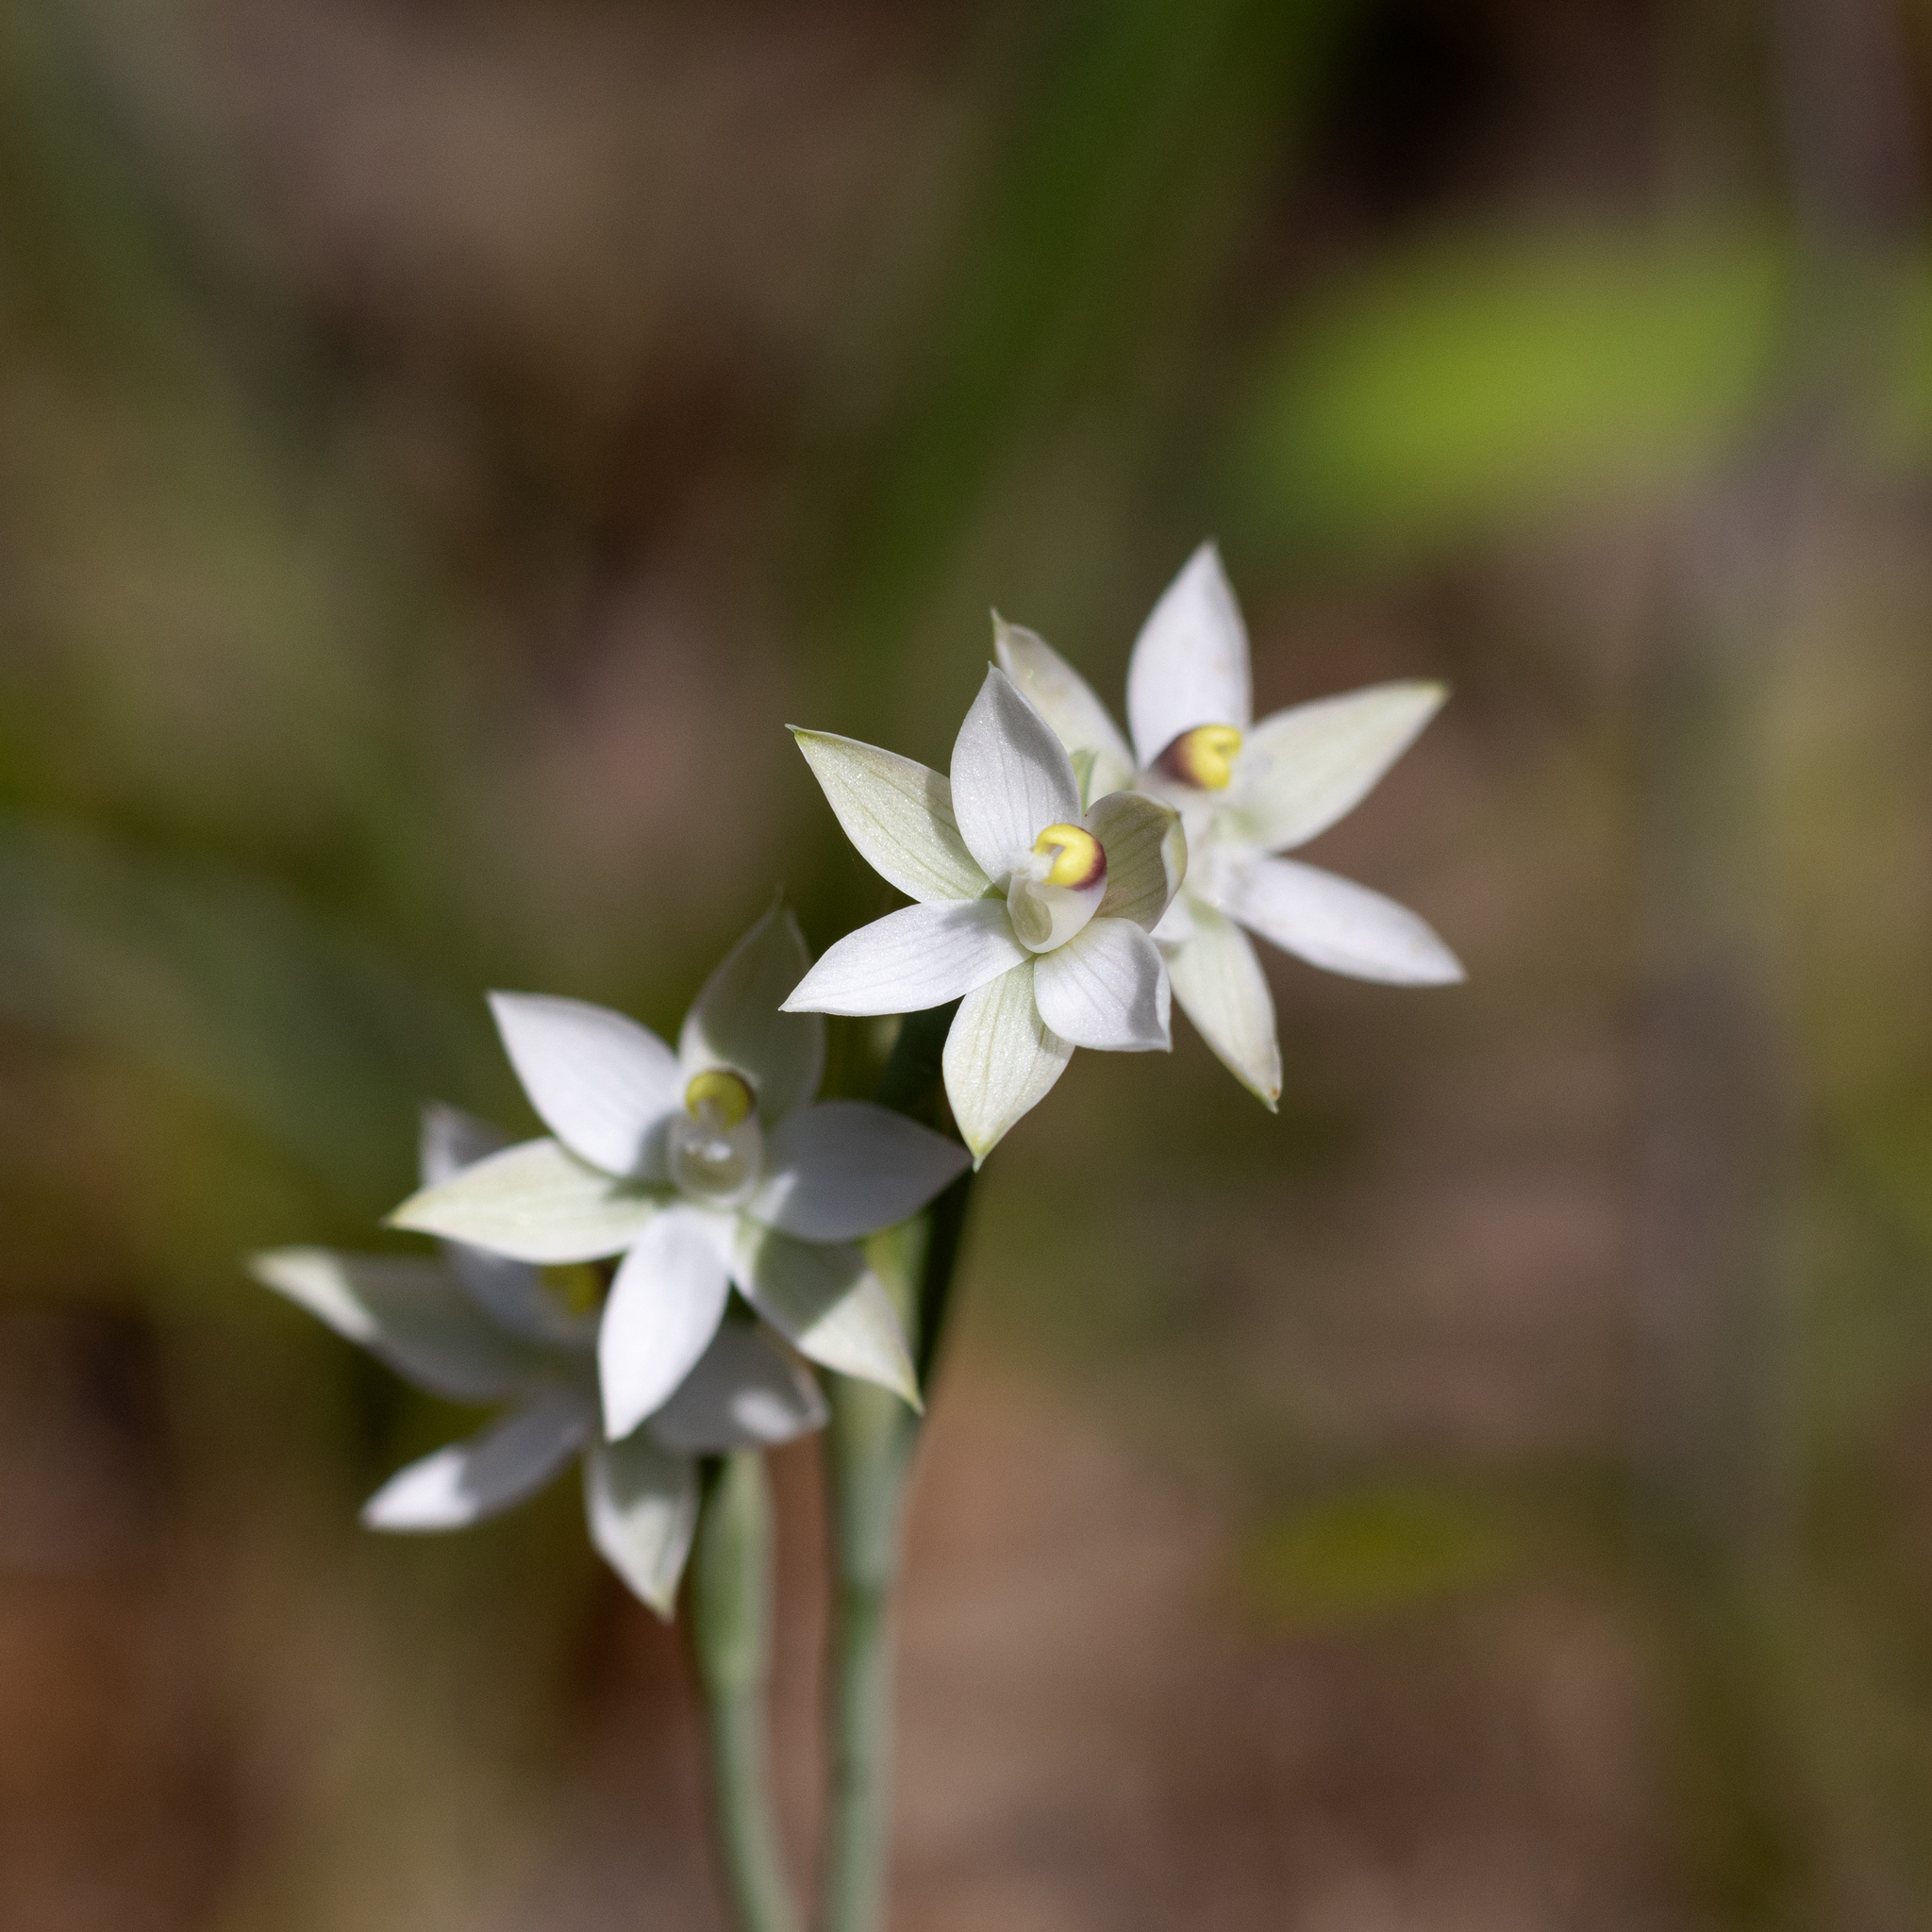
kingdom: Plantae
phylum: Tracheophyta
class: Liliopsida
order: Asparagales
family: Orchidaceae
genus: Thelymitra
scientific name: Thelymitra albiflora
